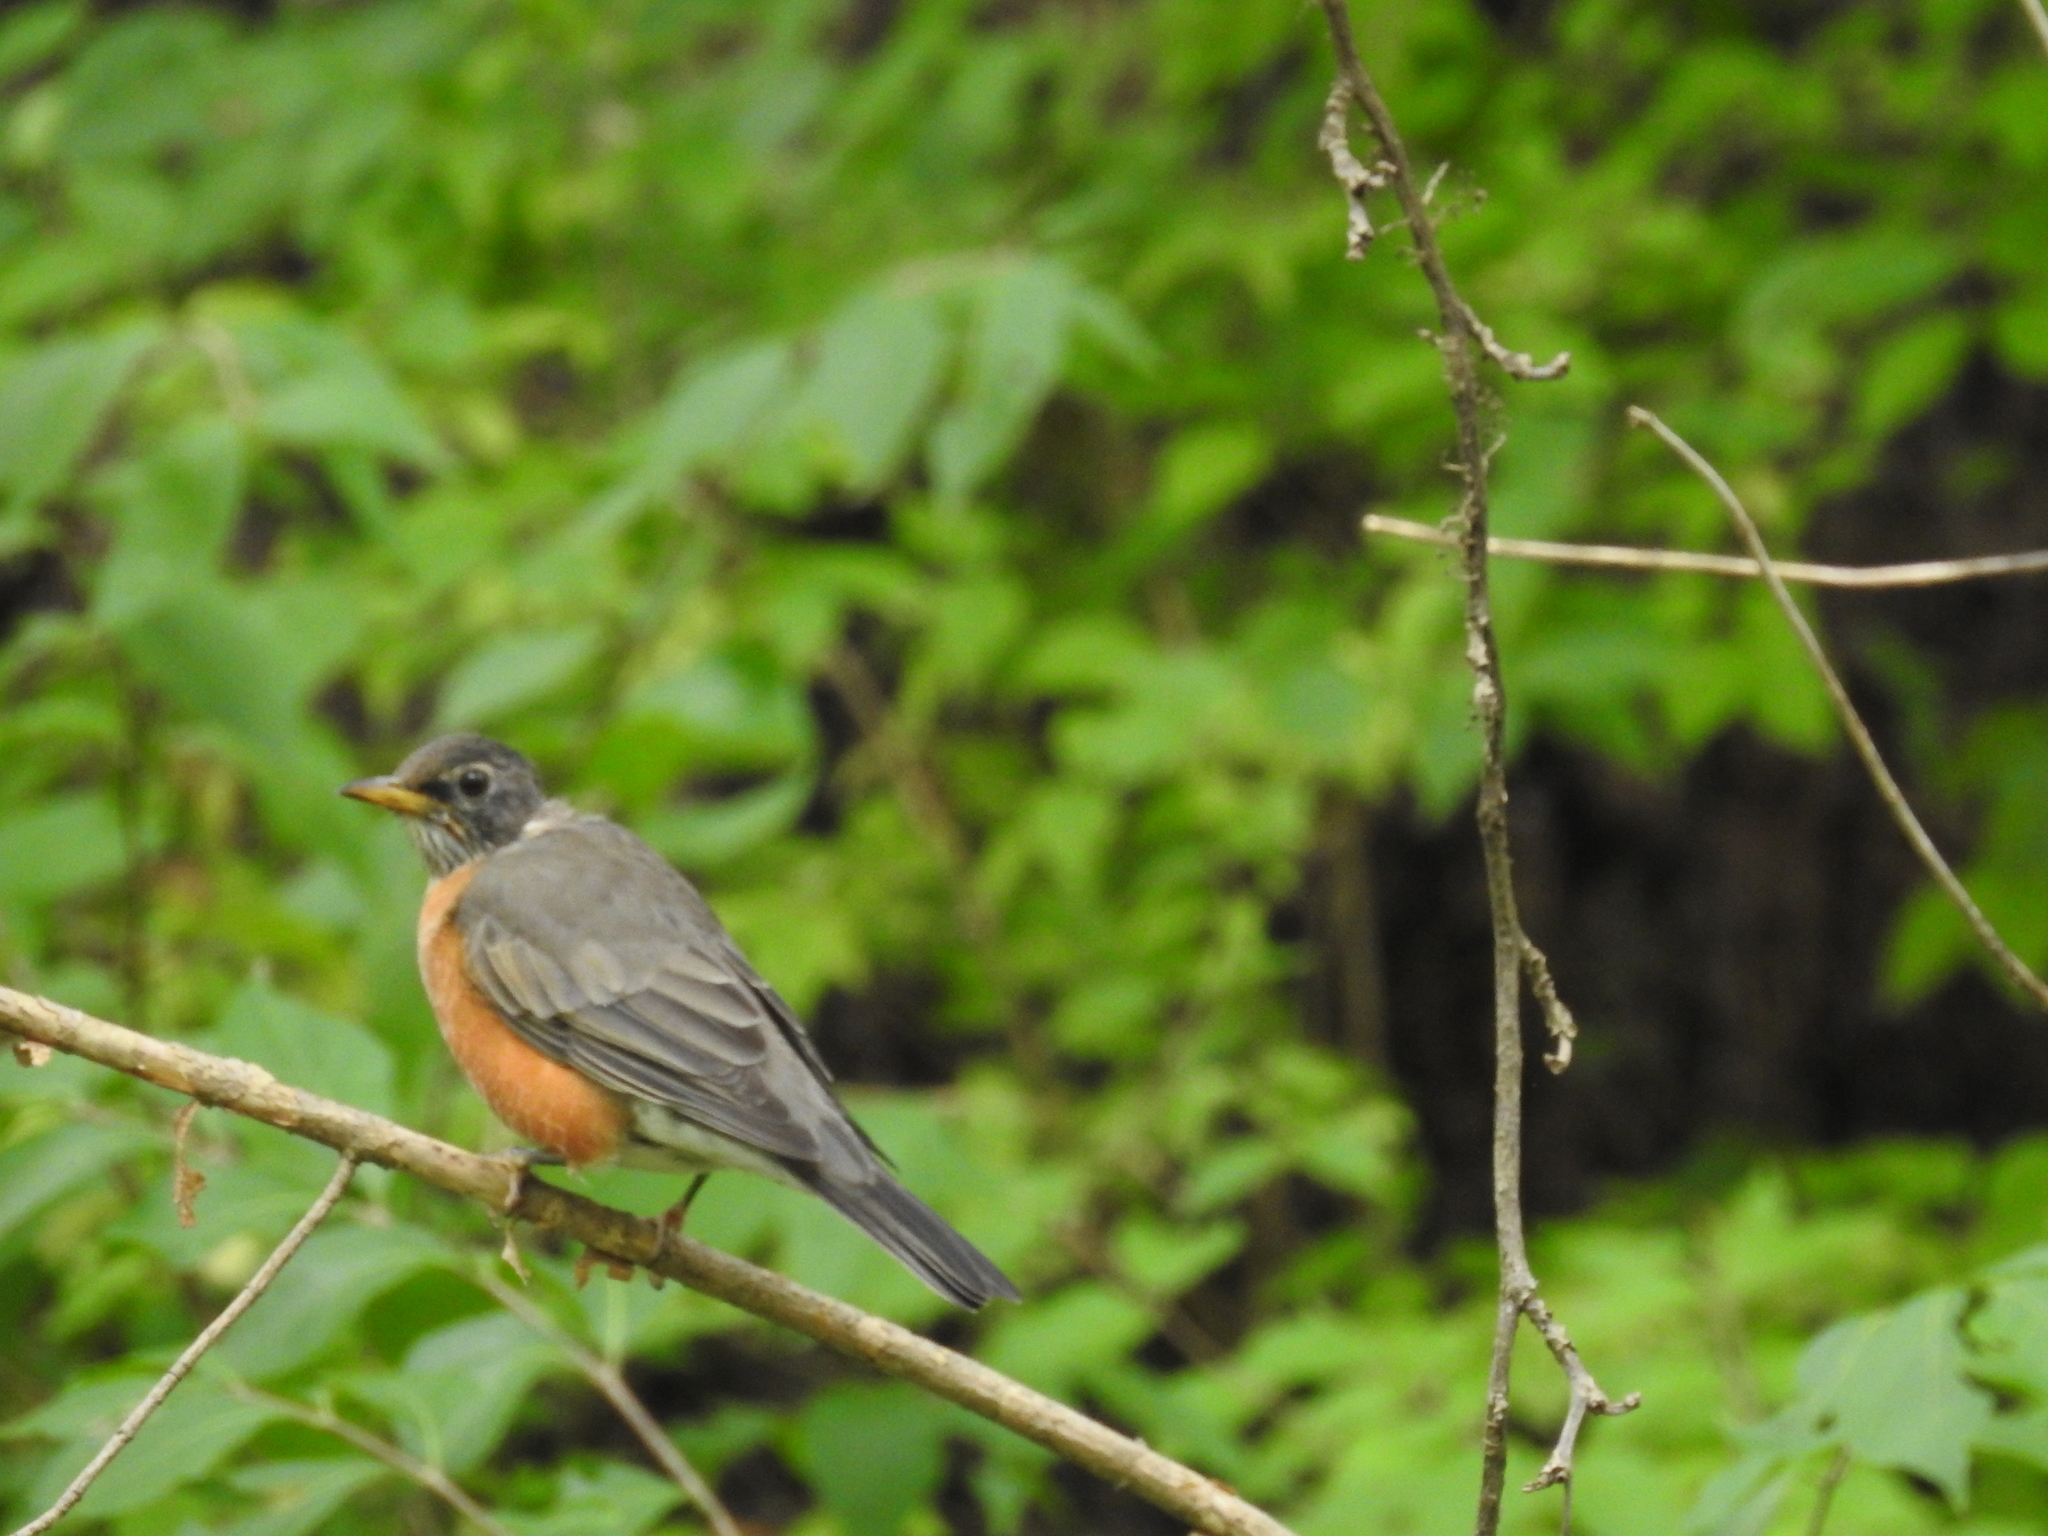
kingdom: Animalia
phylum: Chordata
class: Aves
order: Passeriformes
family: Turdidae
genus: Turdus
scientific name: Turdus migratorius
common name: American robin
